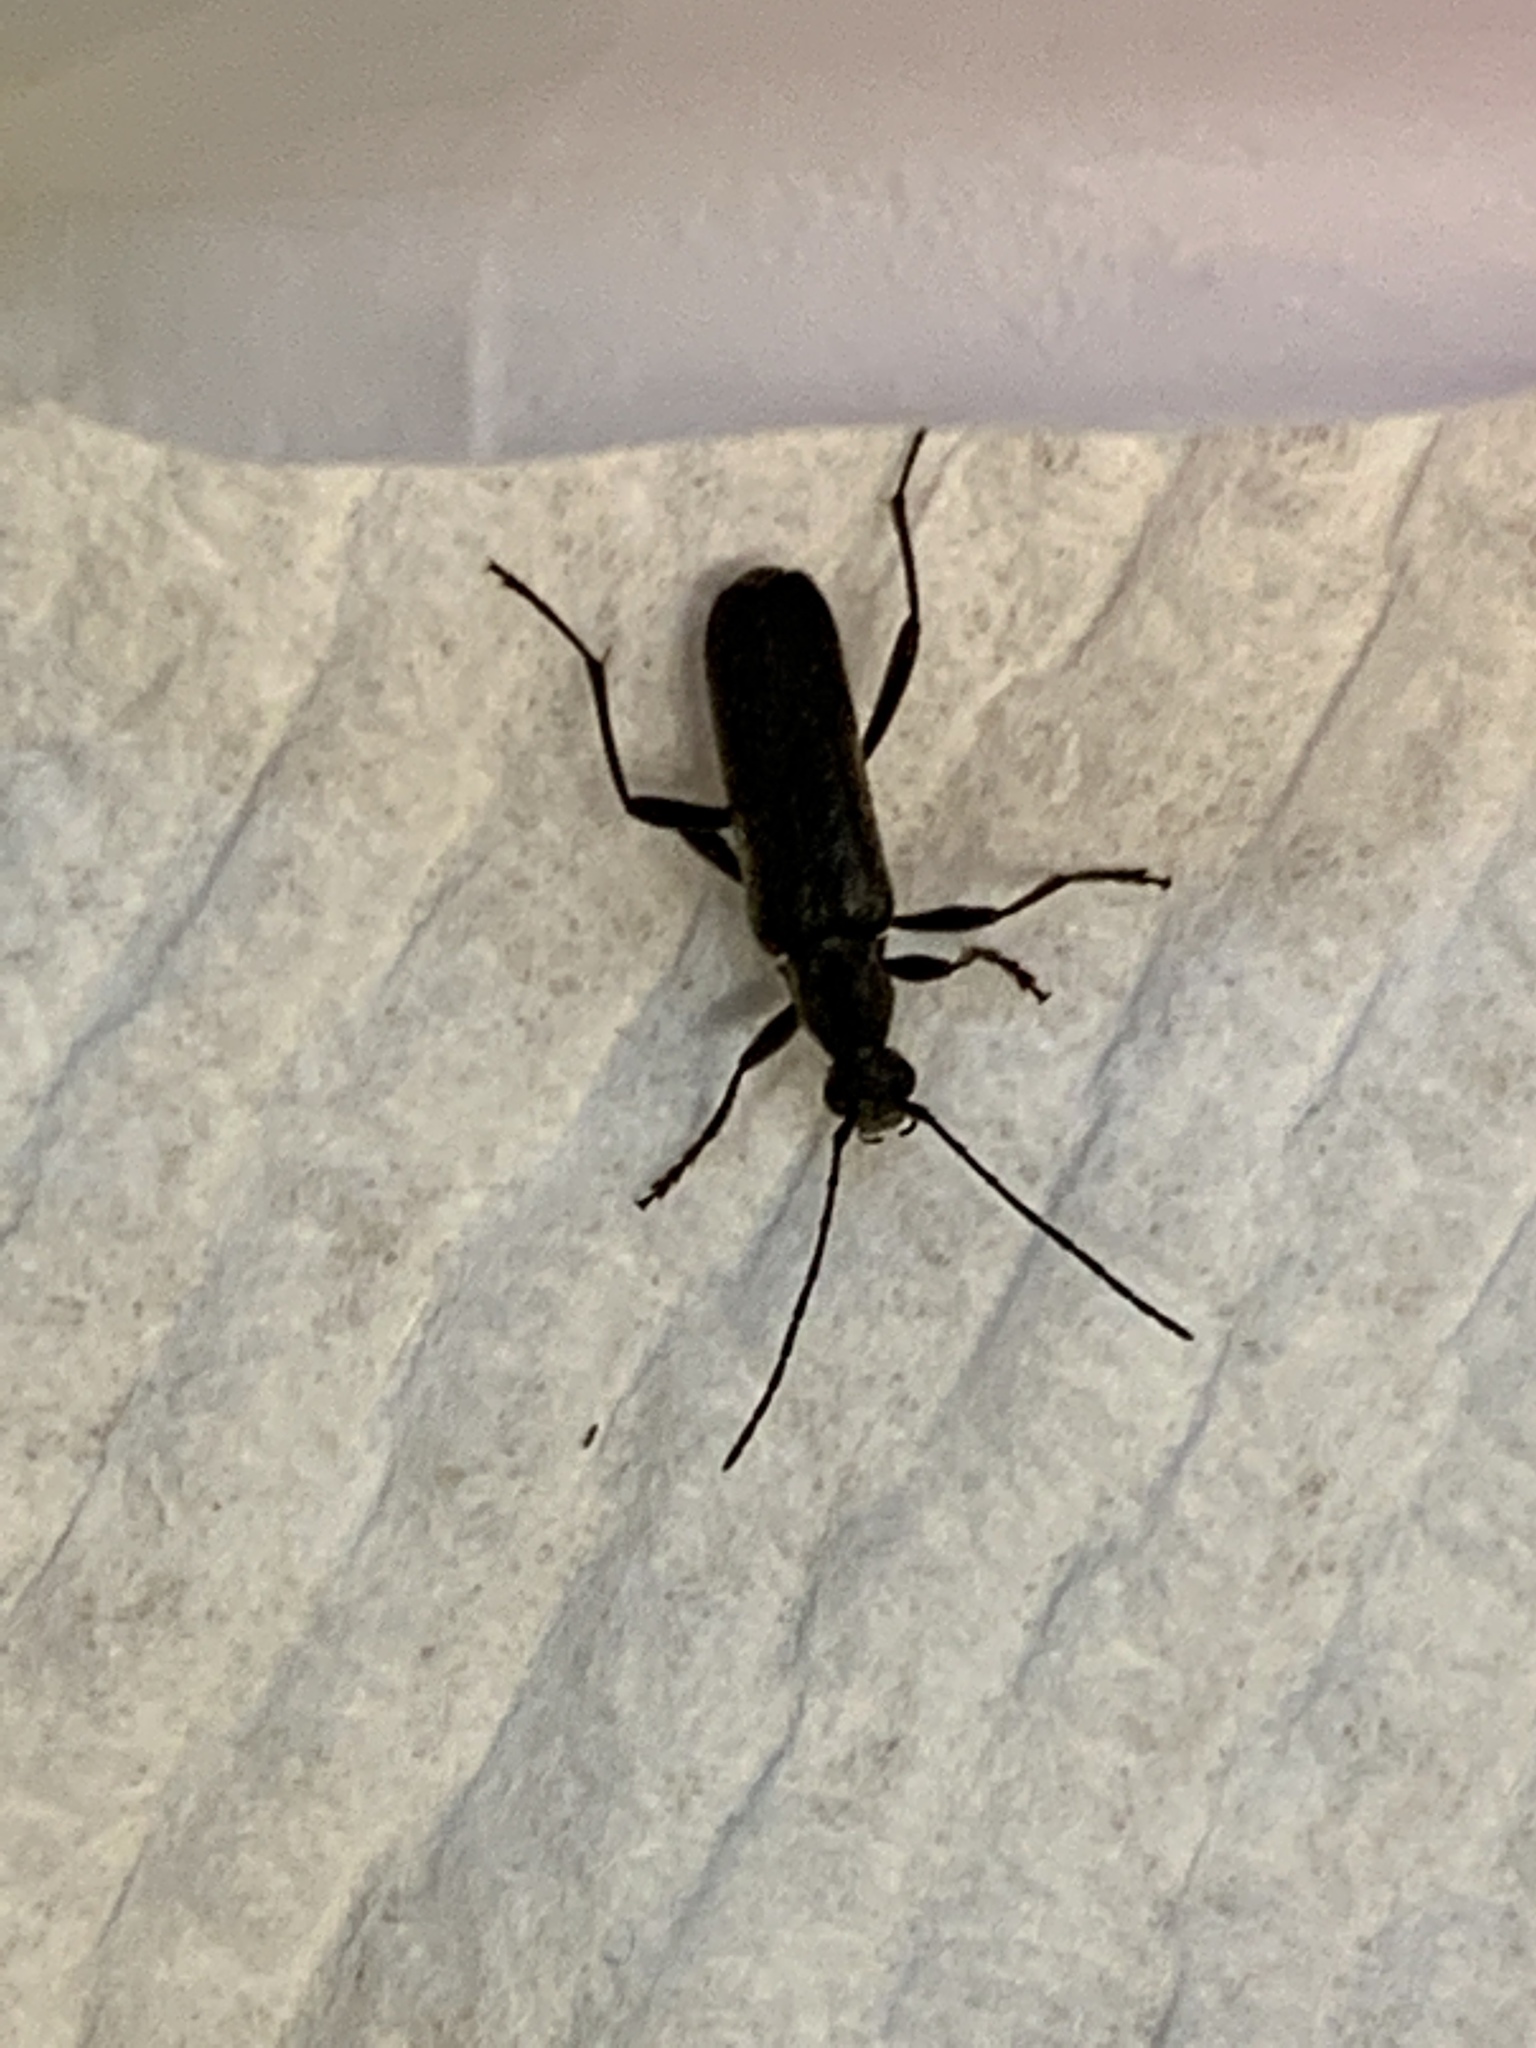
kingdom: Animalia
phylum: Arthropoda
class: Insecta
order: Coleoptera
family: Cerambycidae
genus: Grammoptera
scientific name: Grammoptera subargentata
